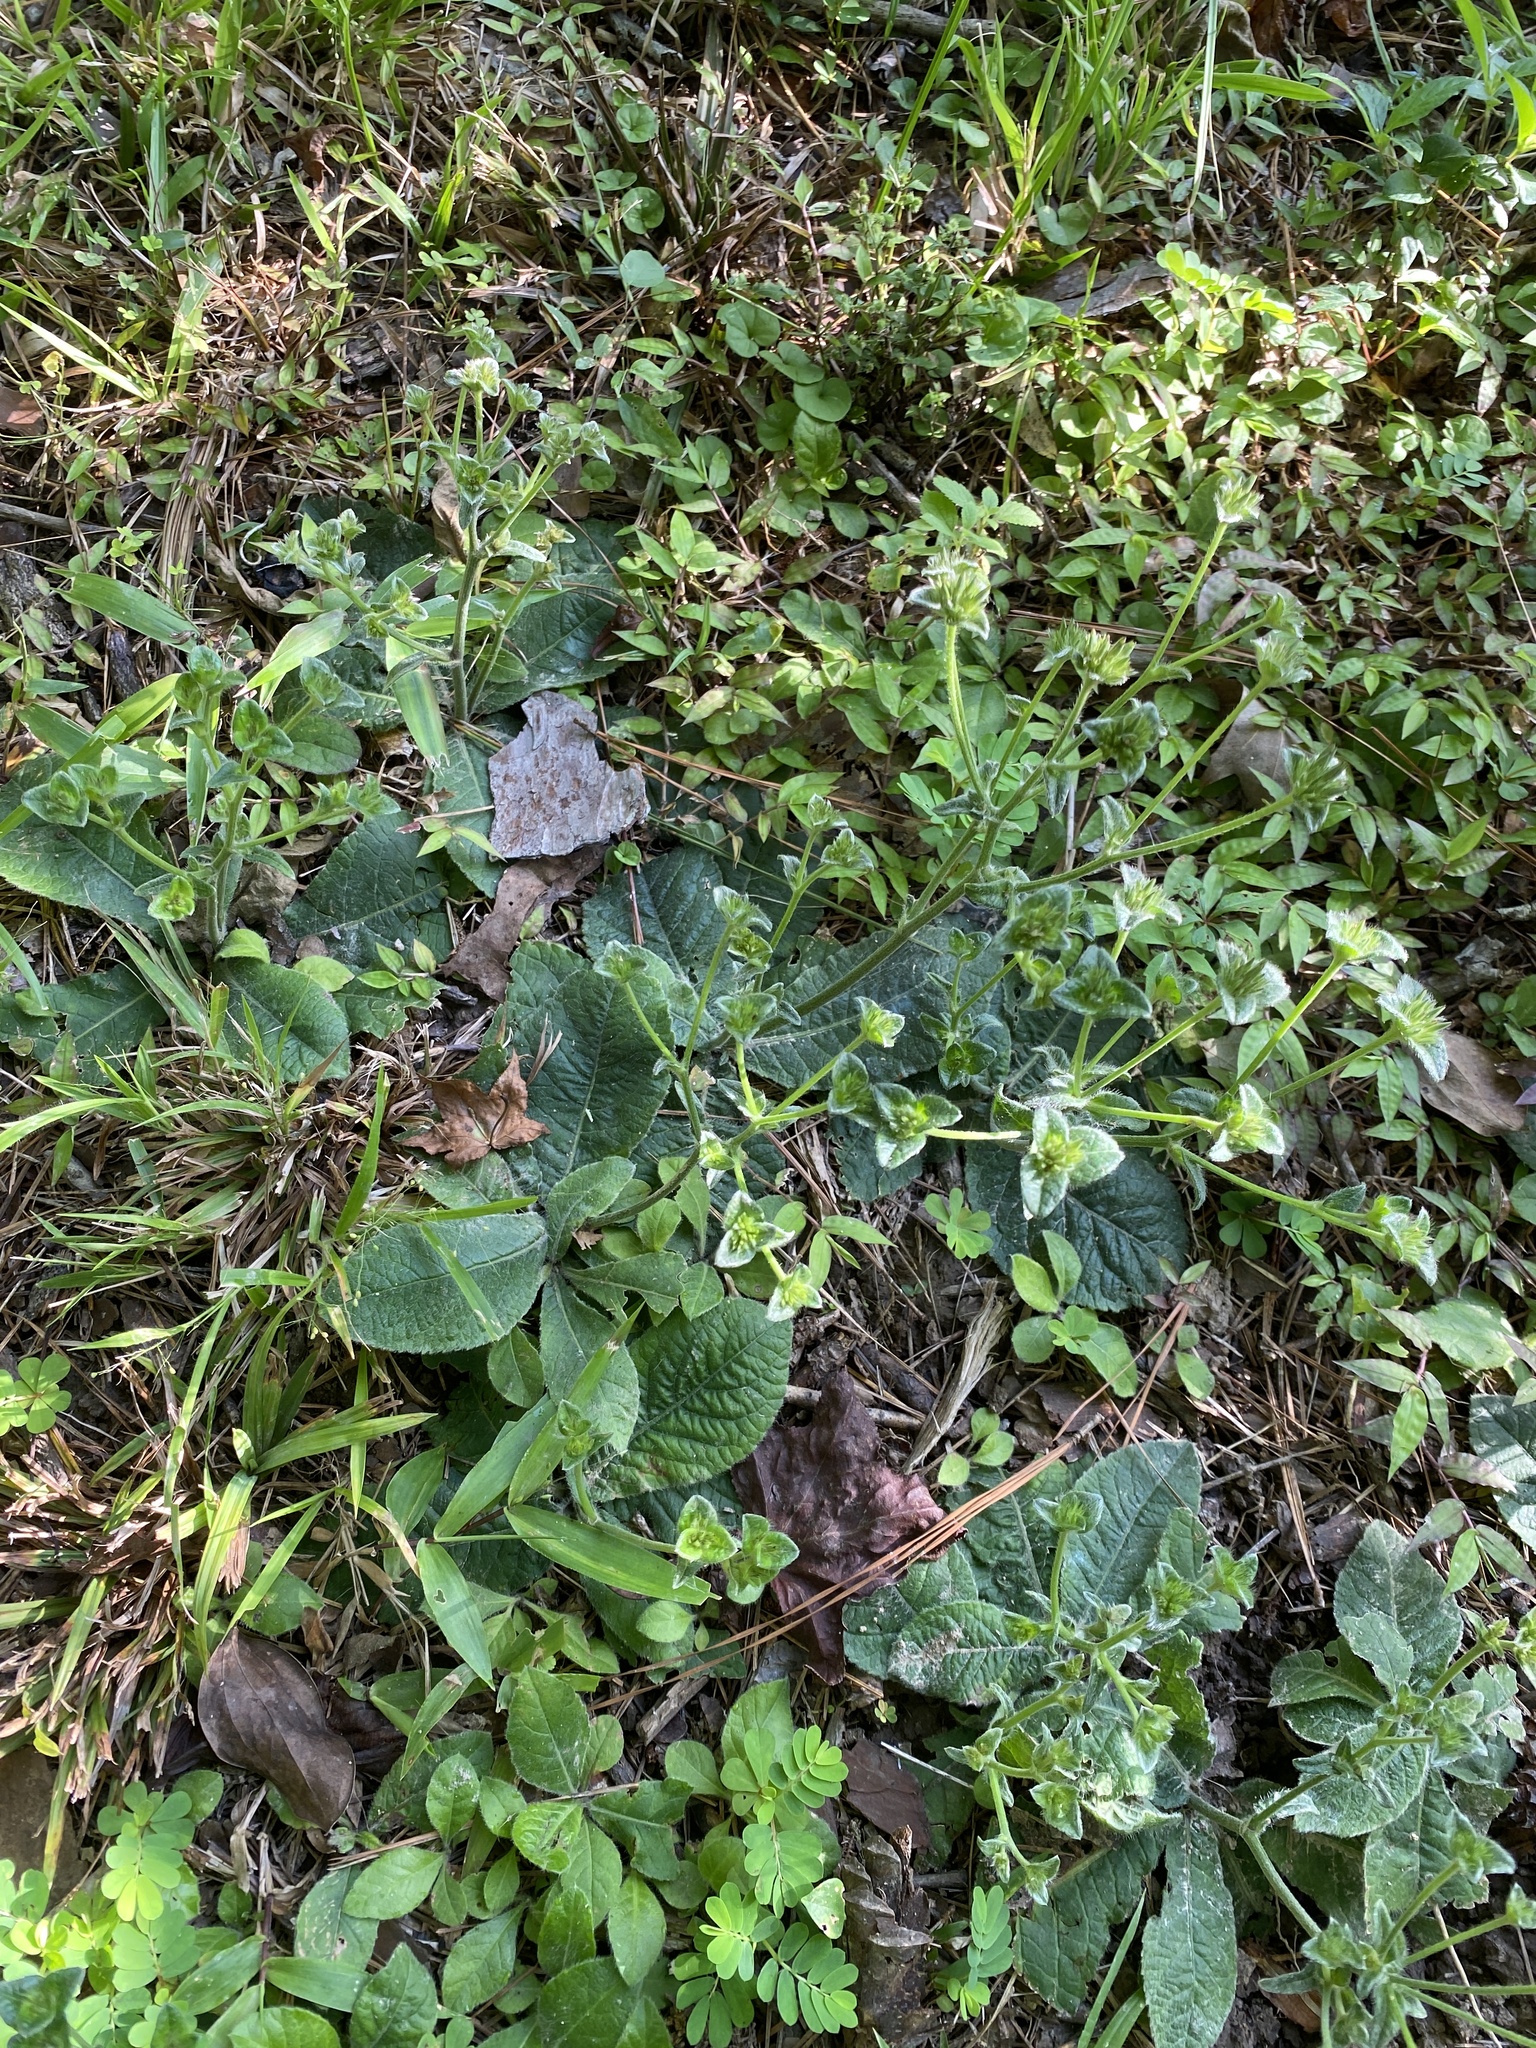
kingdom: Plantae
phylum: Tracheophyta
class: Magnoliopsida
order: Asterales
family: Asteraceae
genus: Elephantopus
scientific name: Elephantopus tomentosus
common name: Tobacco-weed
